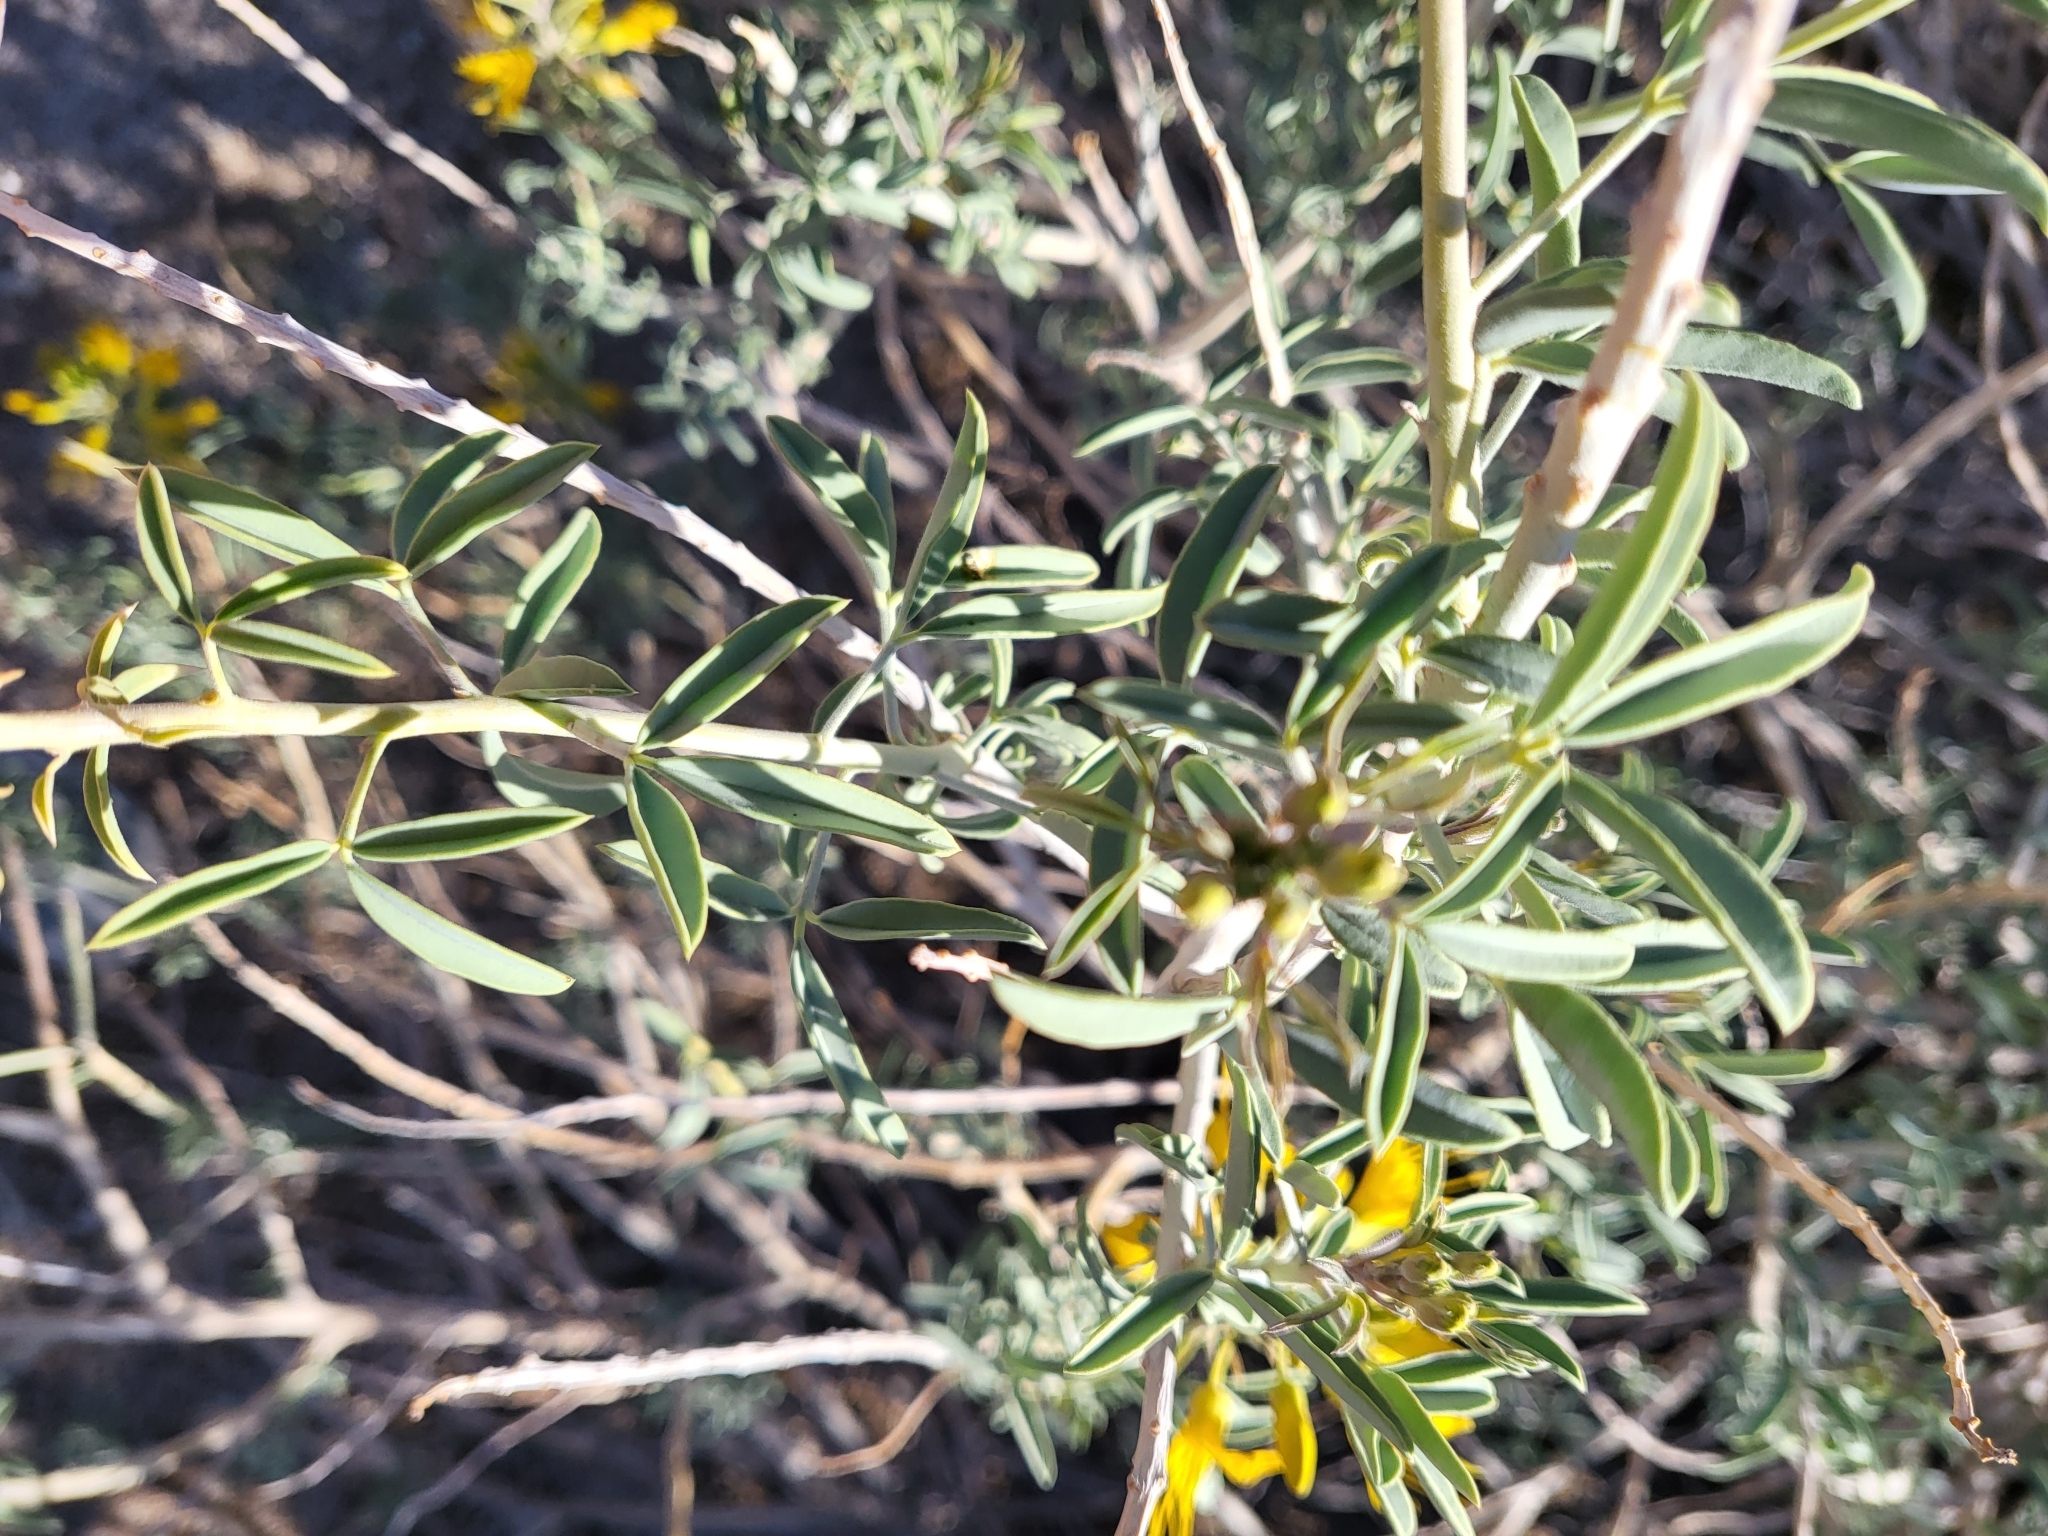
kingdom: Plantae
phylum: Tracheophyta
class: Magnoliopsida
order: Brassicales
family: Cleomaceae
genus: Cleomella
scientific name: Cleomella arborea
